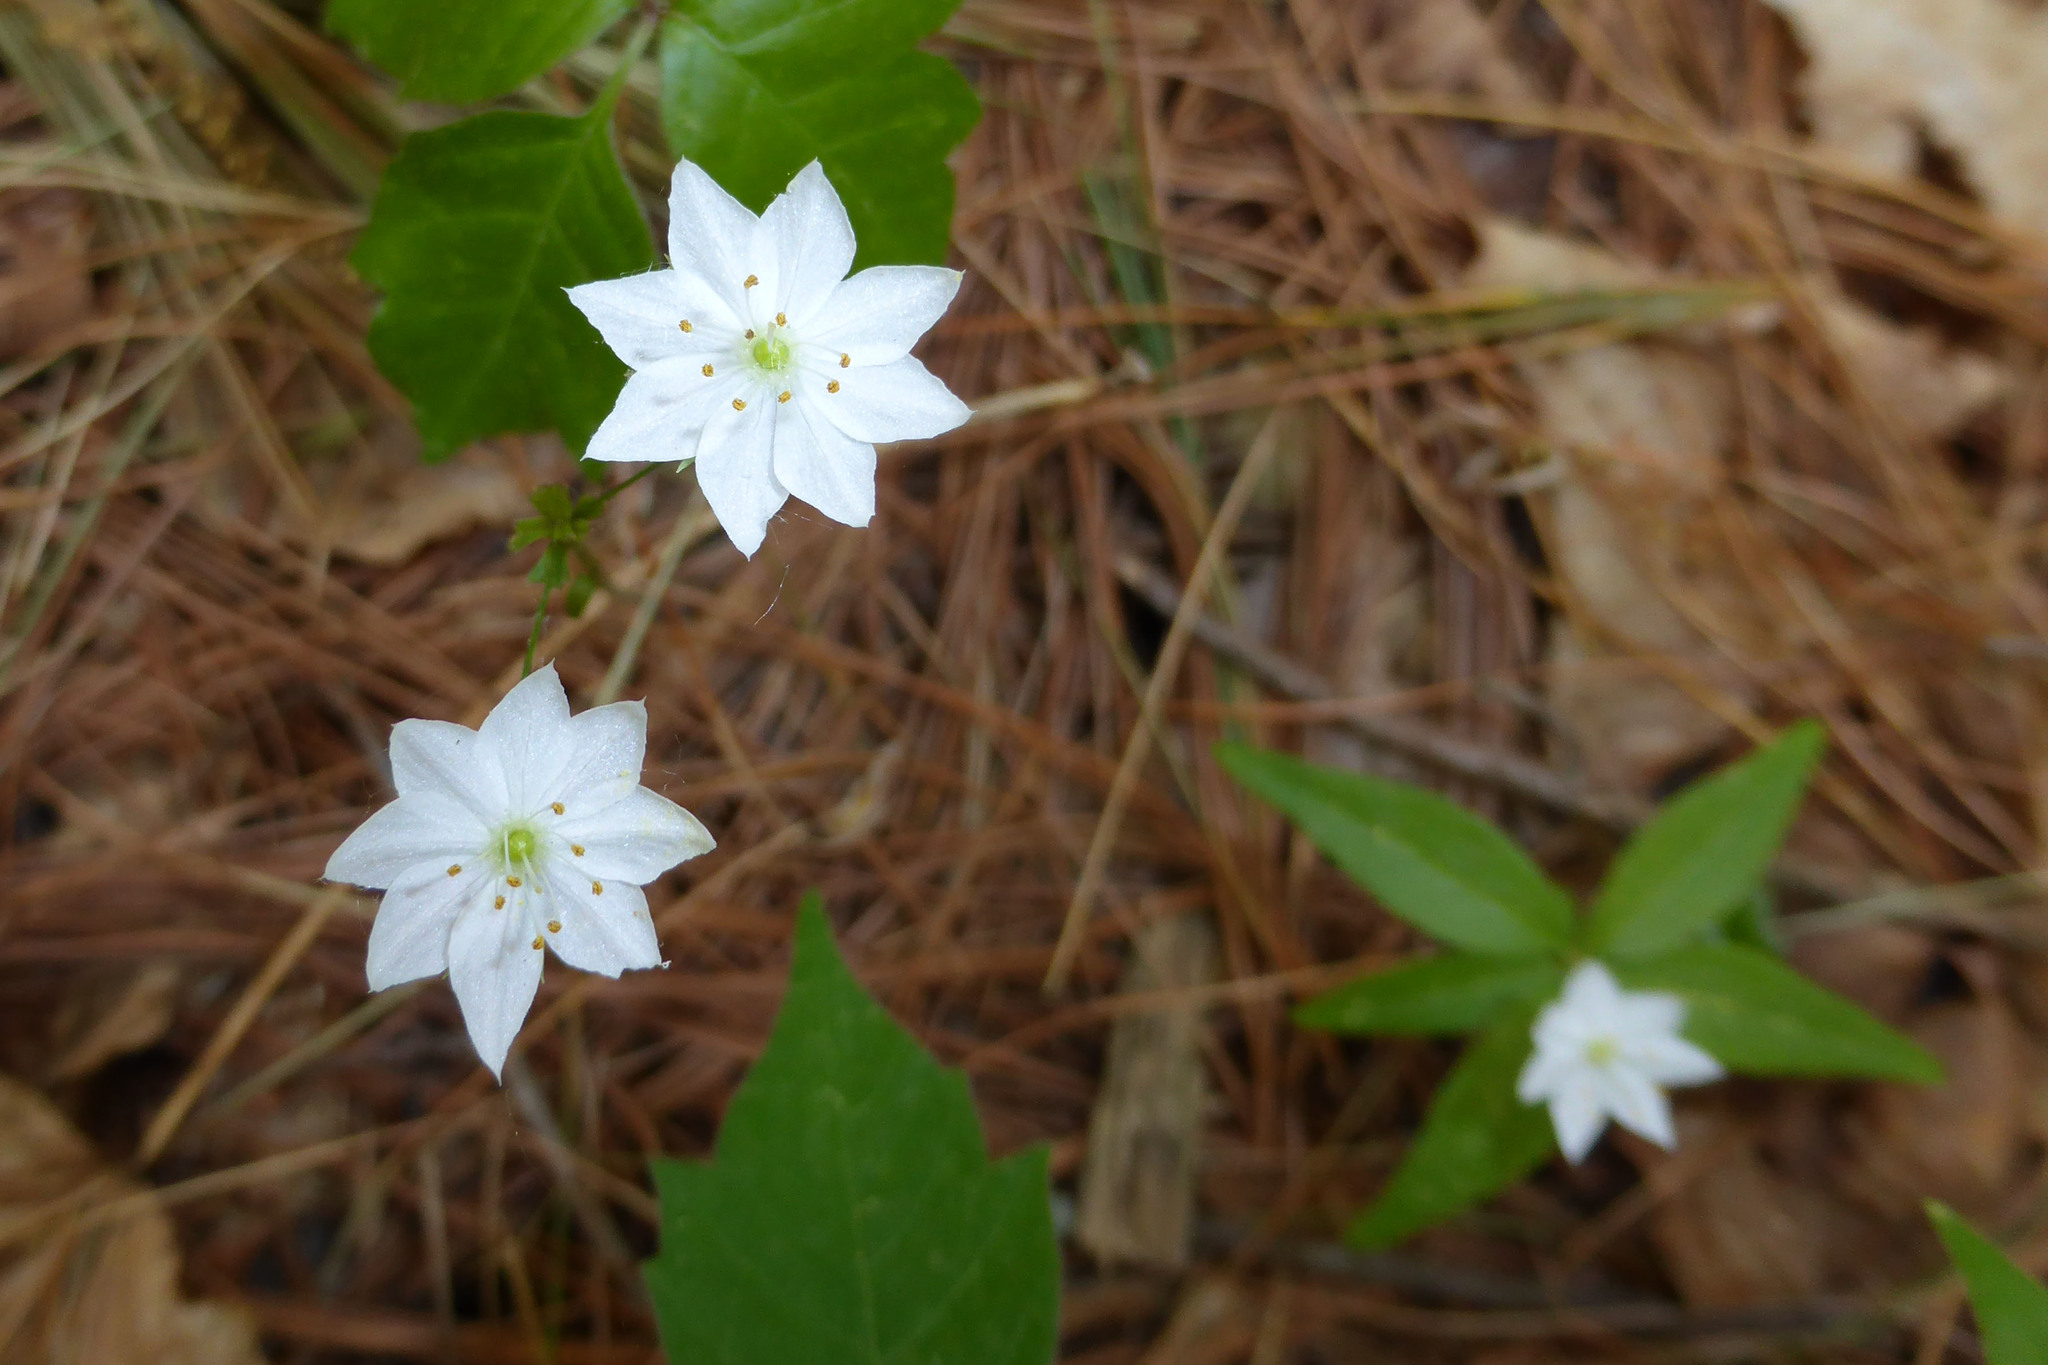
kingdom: Plantae
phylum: Tracheophyta
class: Magnoliopsida
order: Ericales
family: Primulaceae
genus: Lysimachia
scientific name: Lysimachia borealis
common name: American starflower
